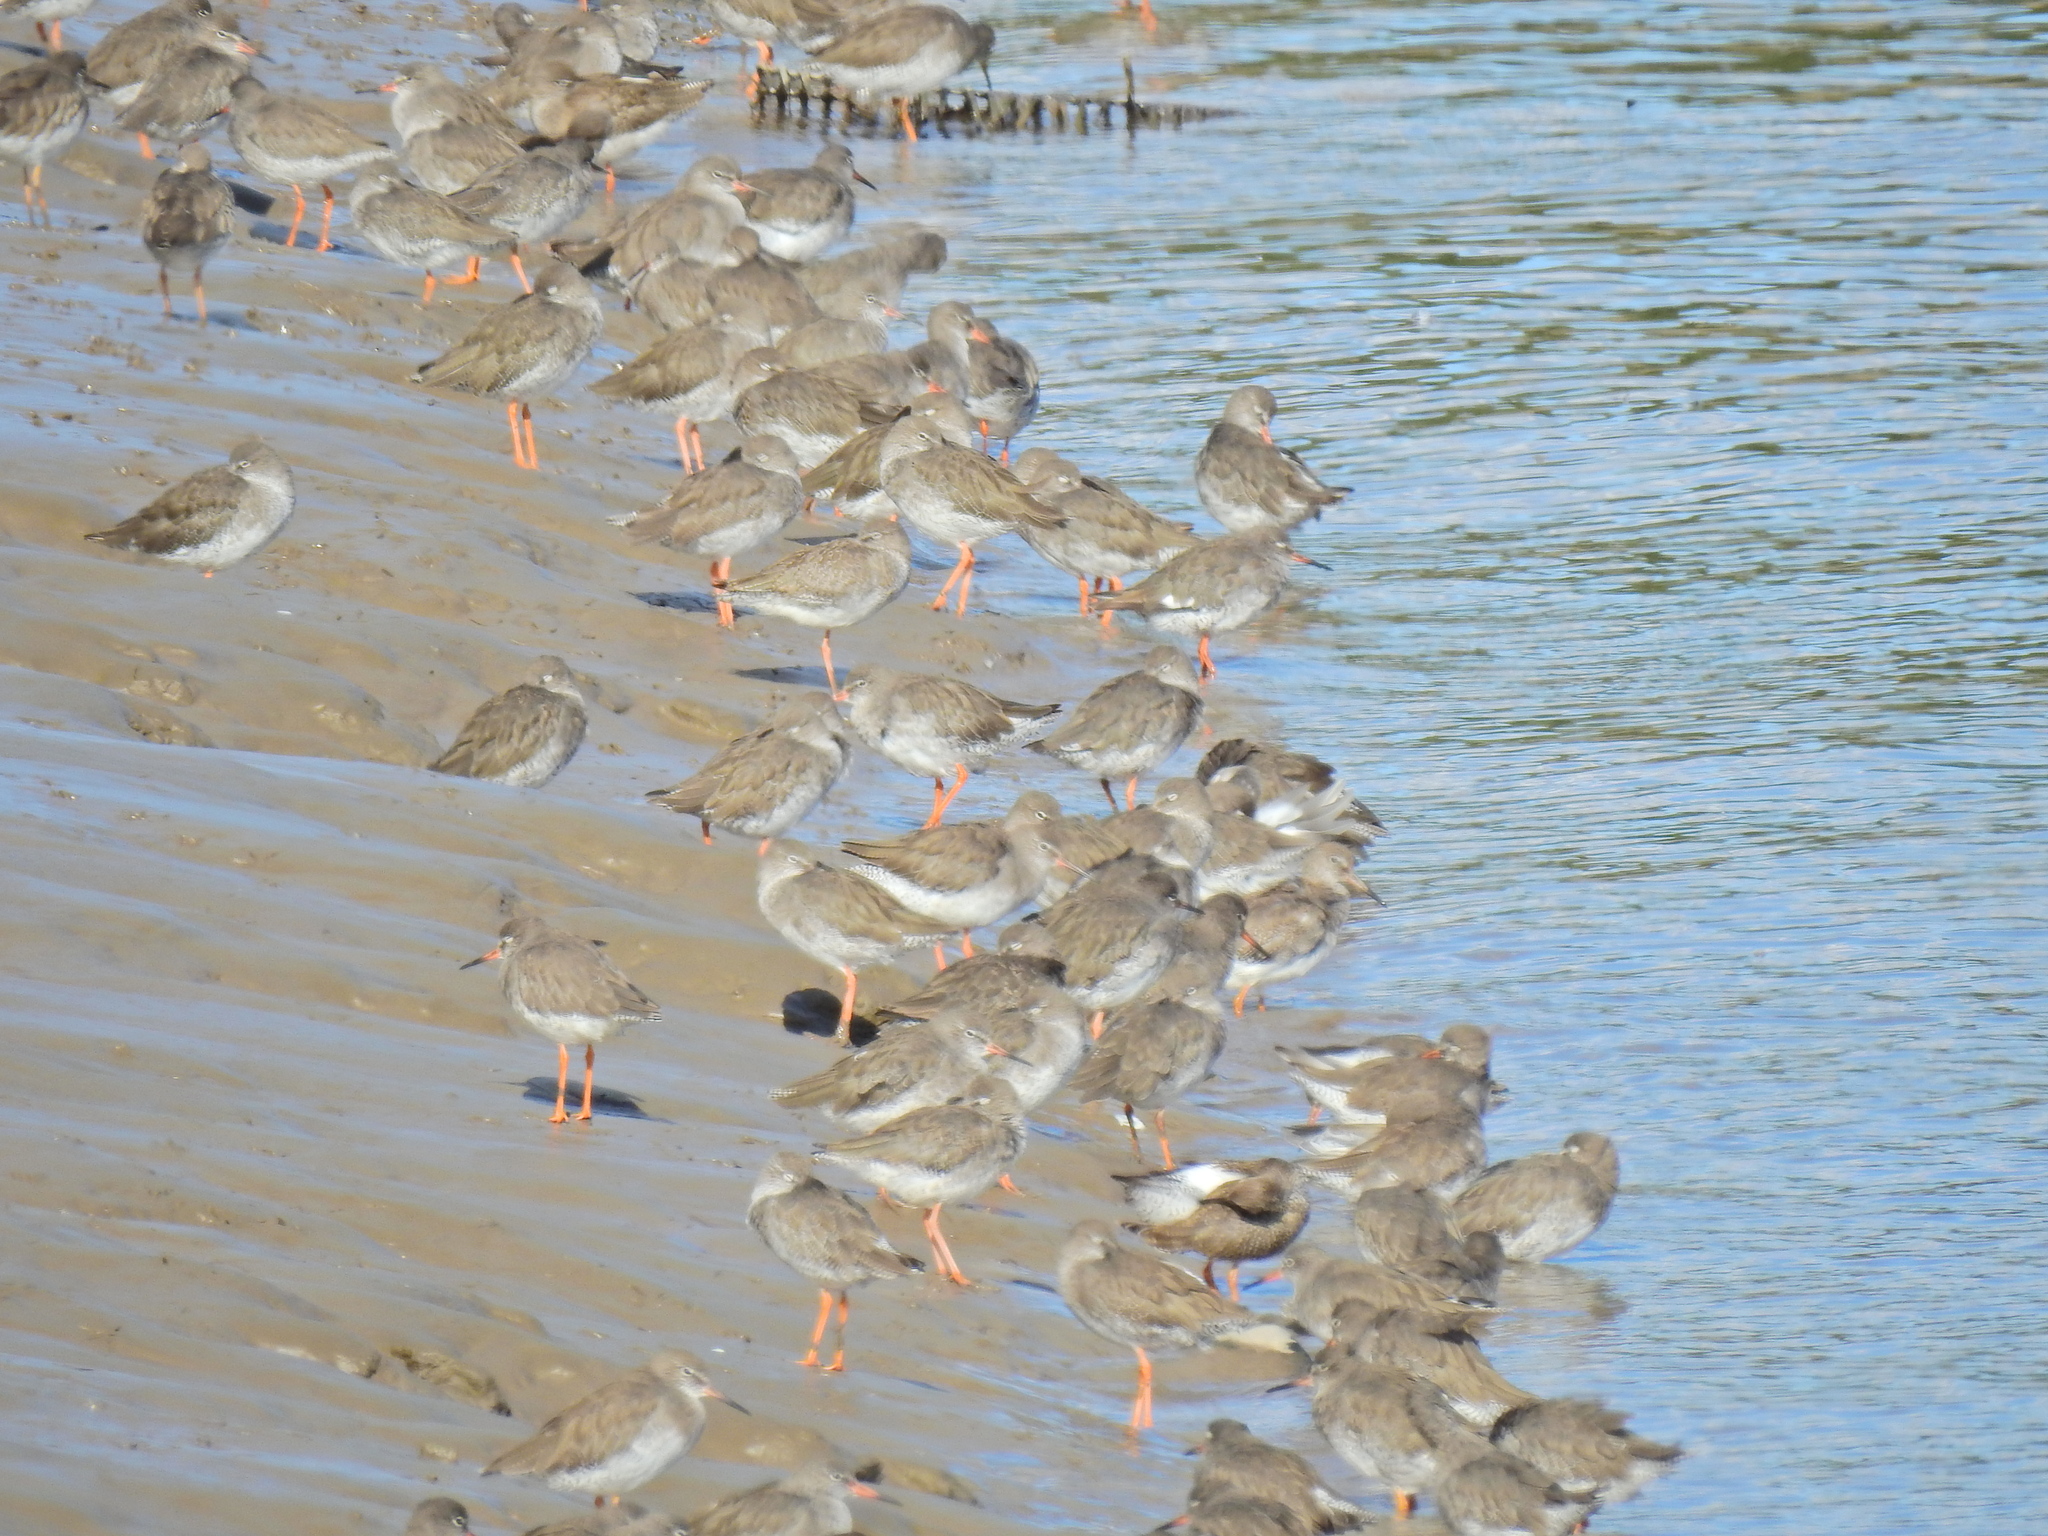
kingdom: Animalia
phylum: Chordata
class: Aves
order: Charadriiformes
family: Scolopacidae
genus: Tringa
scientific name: Tringa totanus
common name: Common redshank
